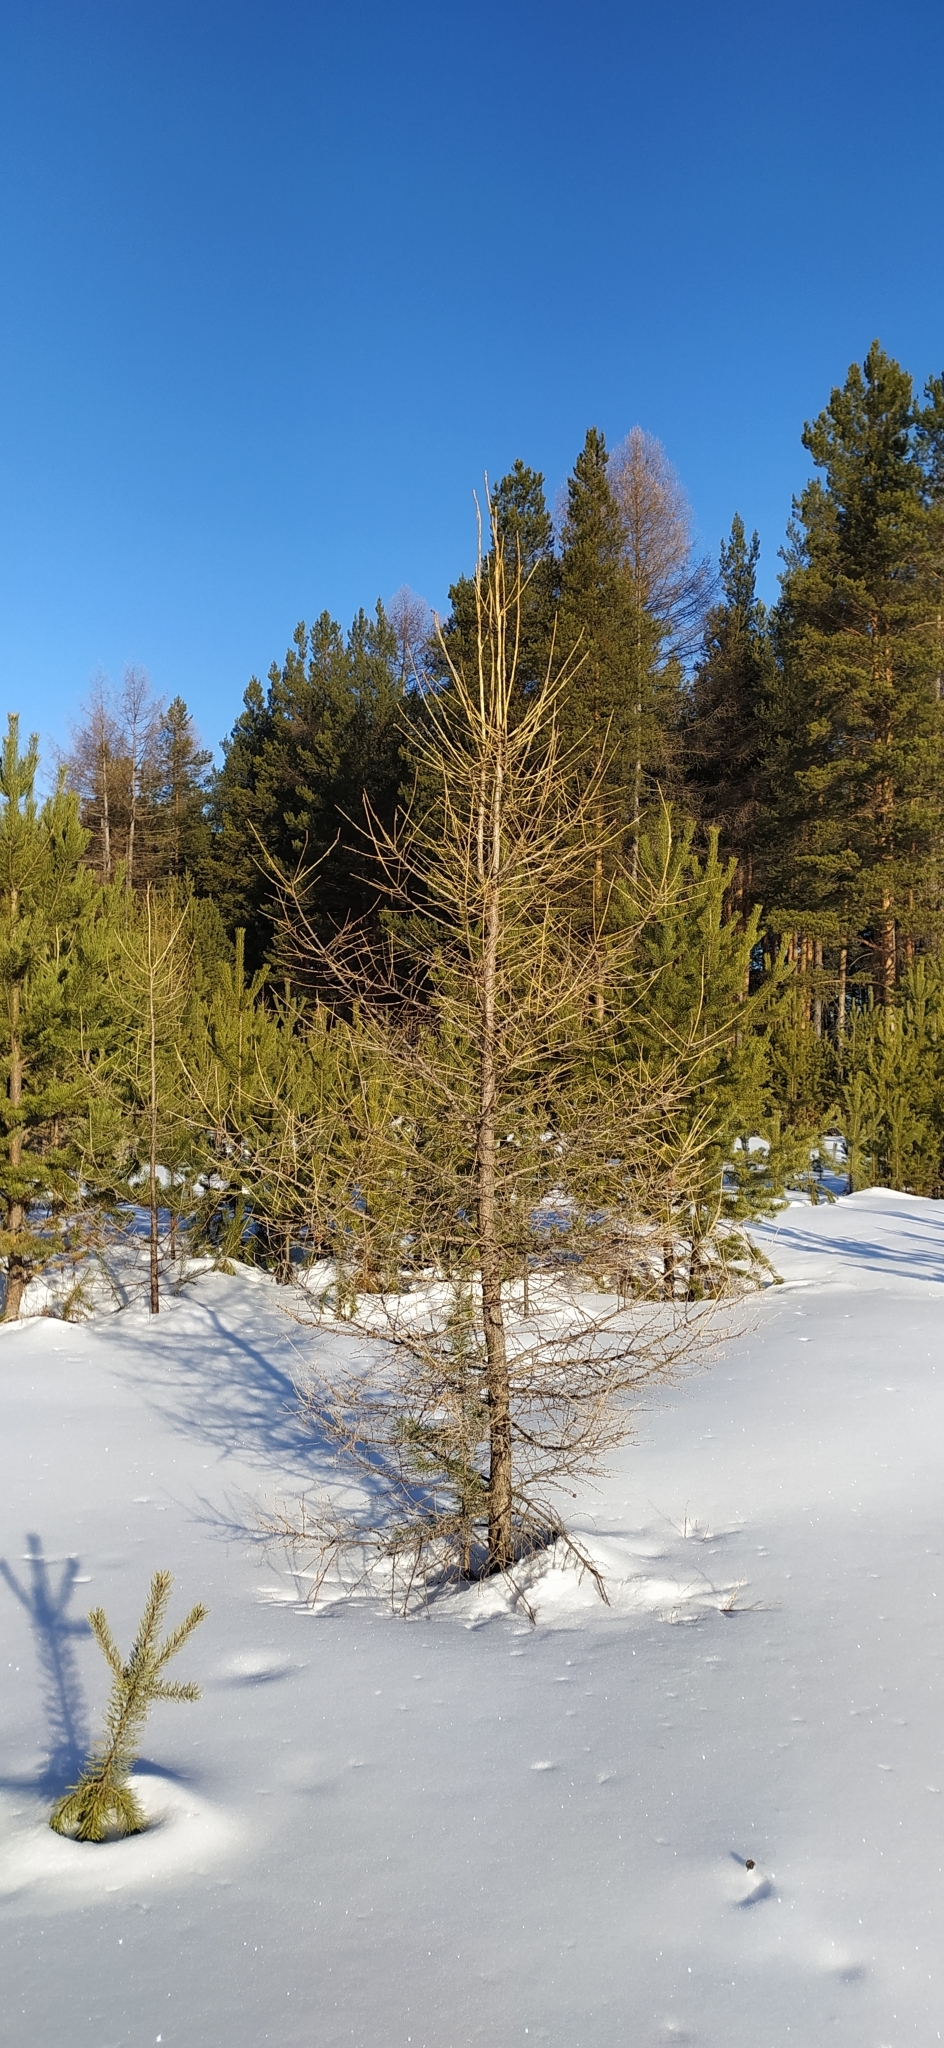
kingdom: Plantae
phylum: Tracheophyta
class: Pinopsida
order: Pinales
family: Pinaceae
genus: Larix
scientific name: Larix sibirica
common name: Siberian larch
